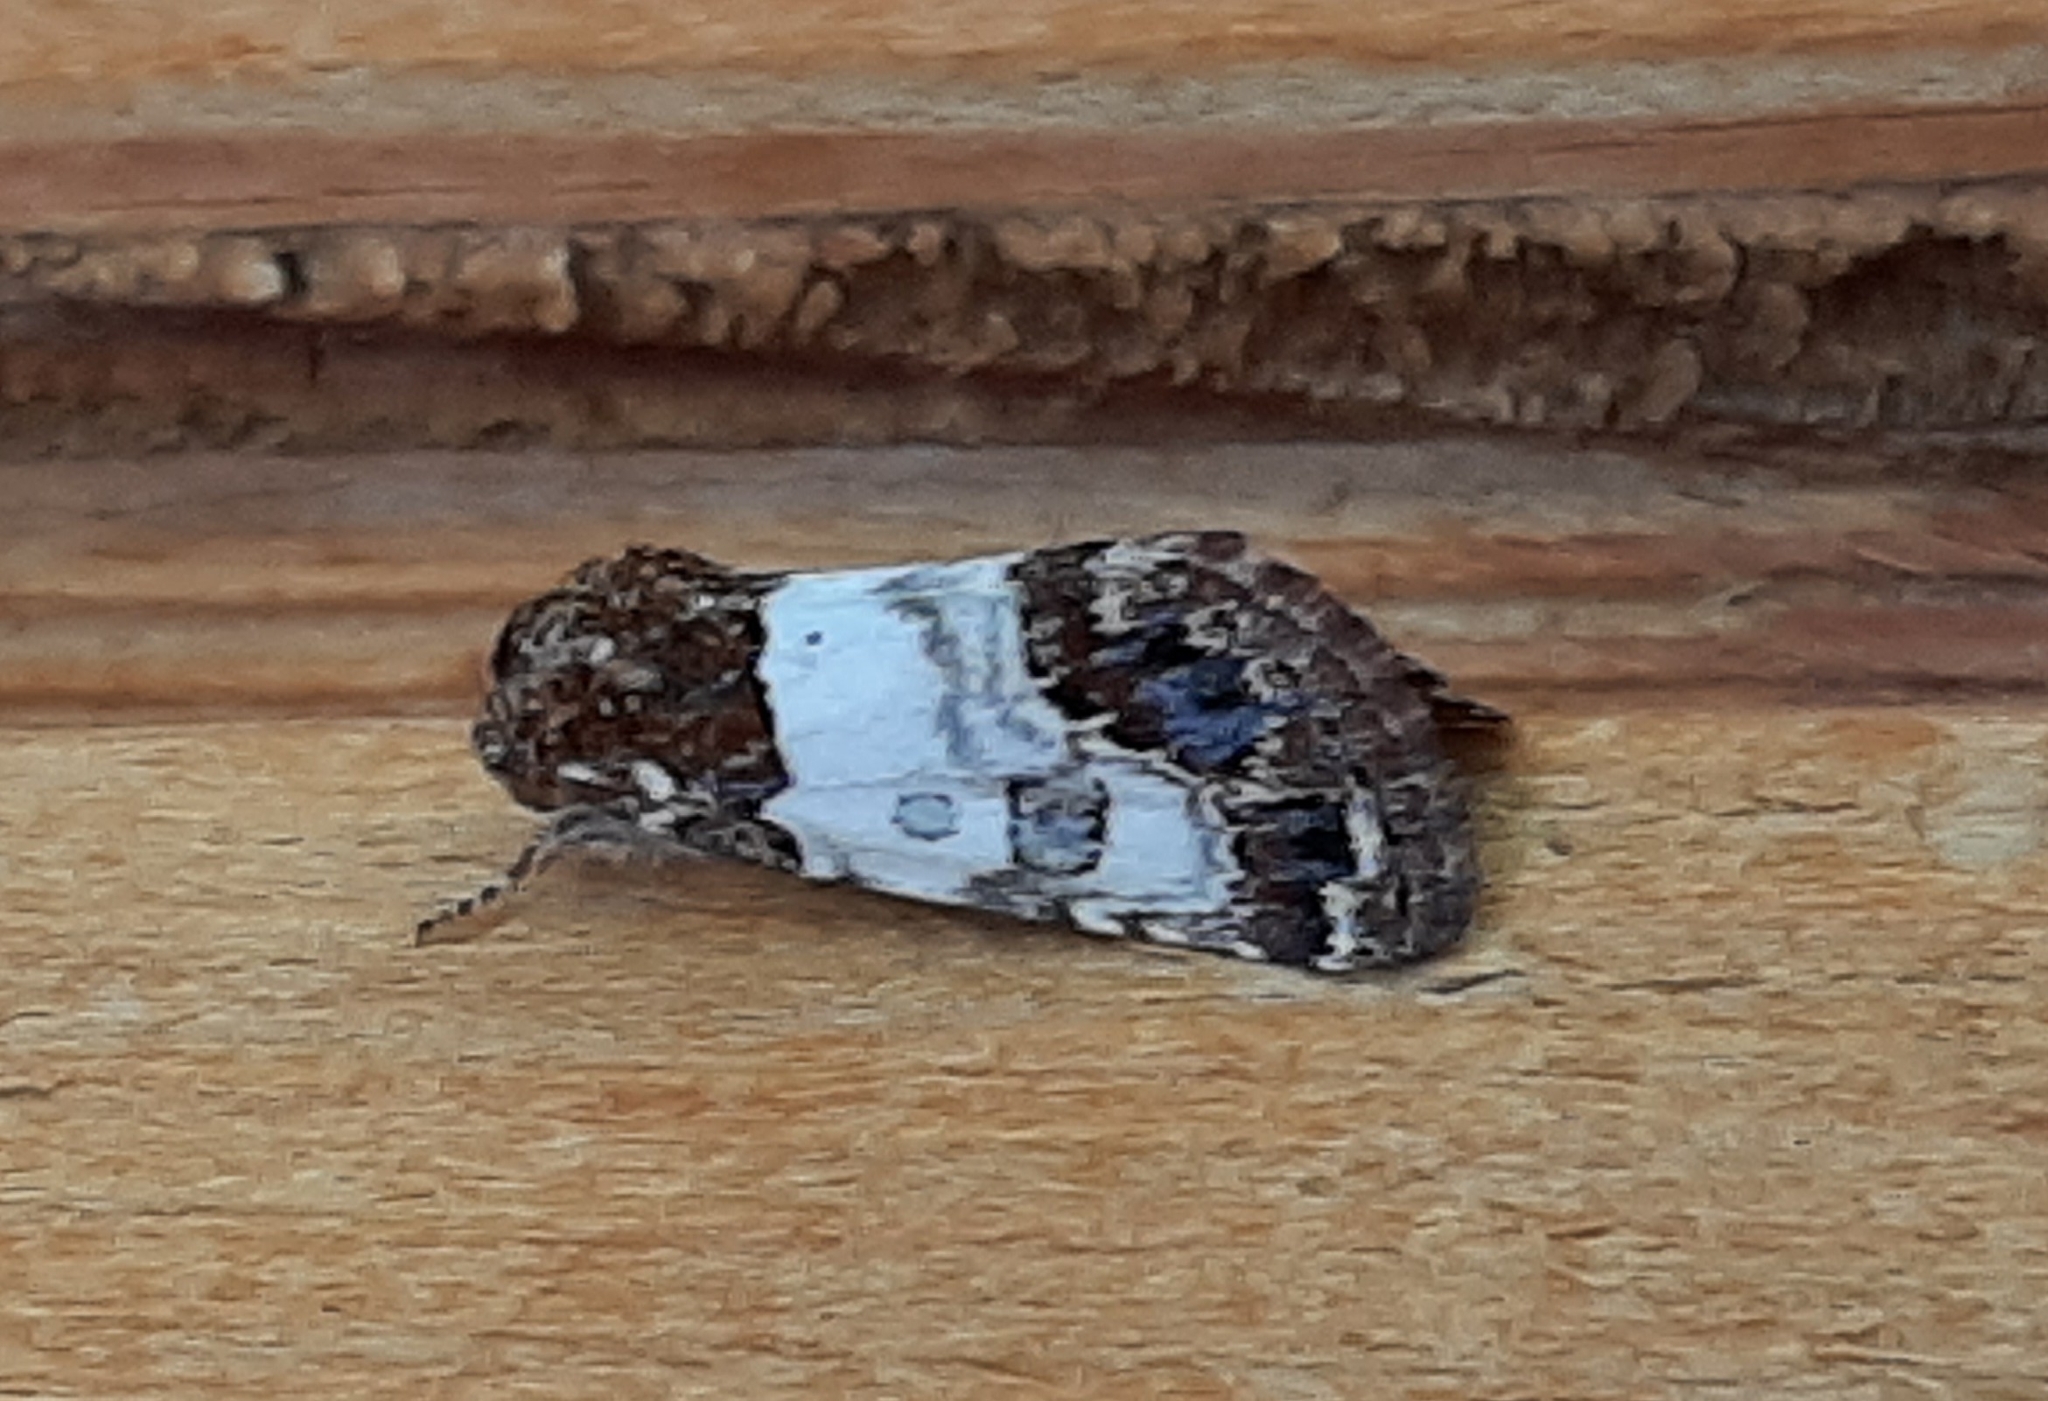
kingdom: Animalia
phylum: Arthropoda
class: Insecta
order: Lepidoptera
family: Noctuidae
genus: Schinia
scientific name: Schinia albafascia
